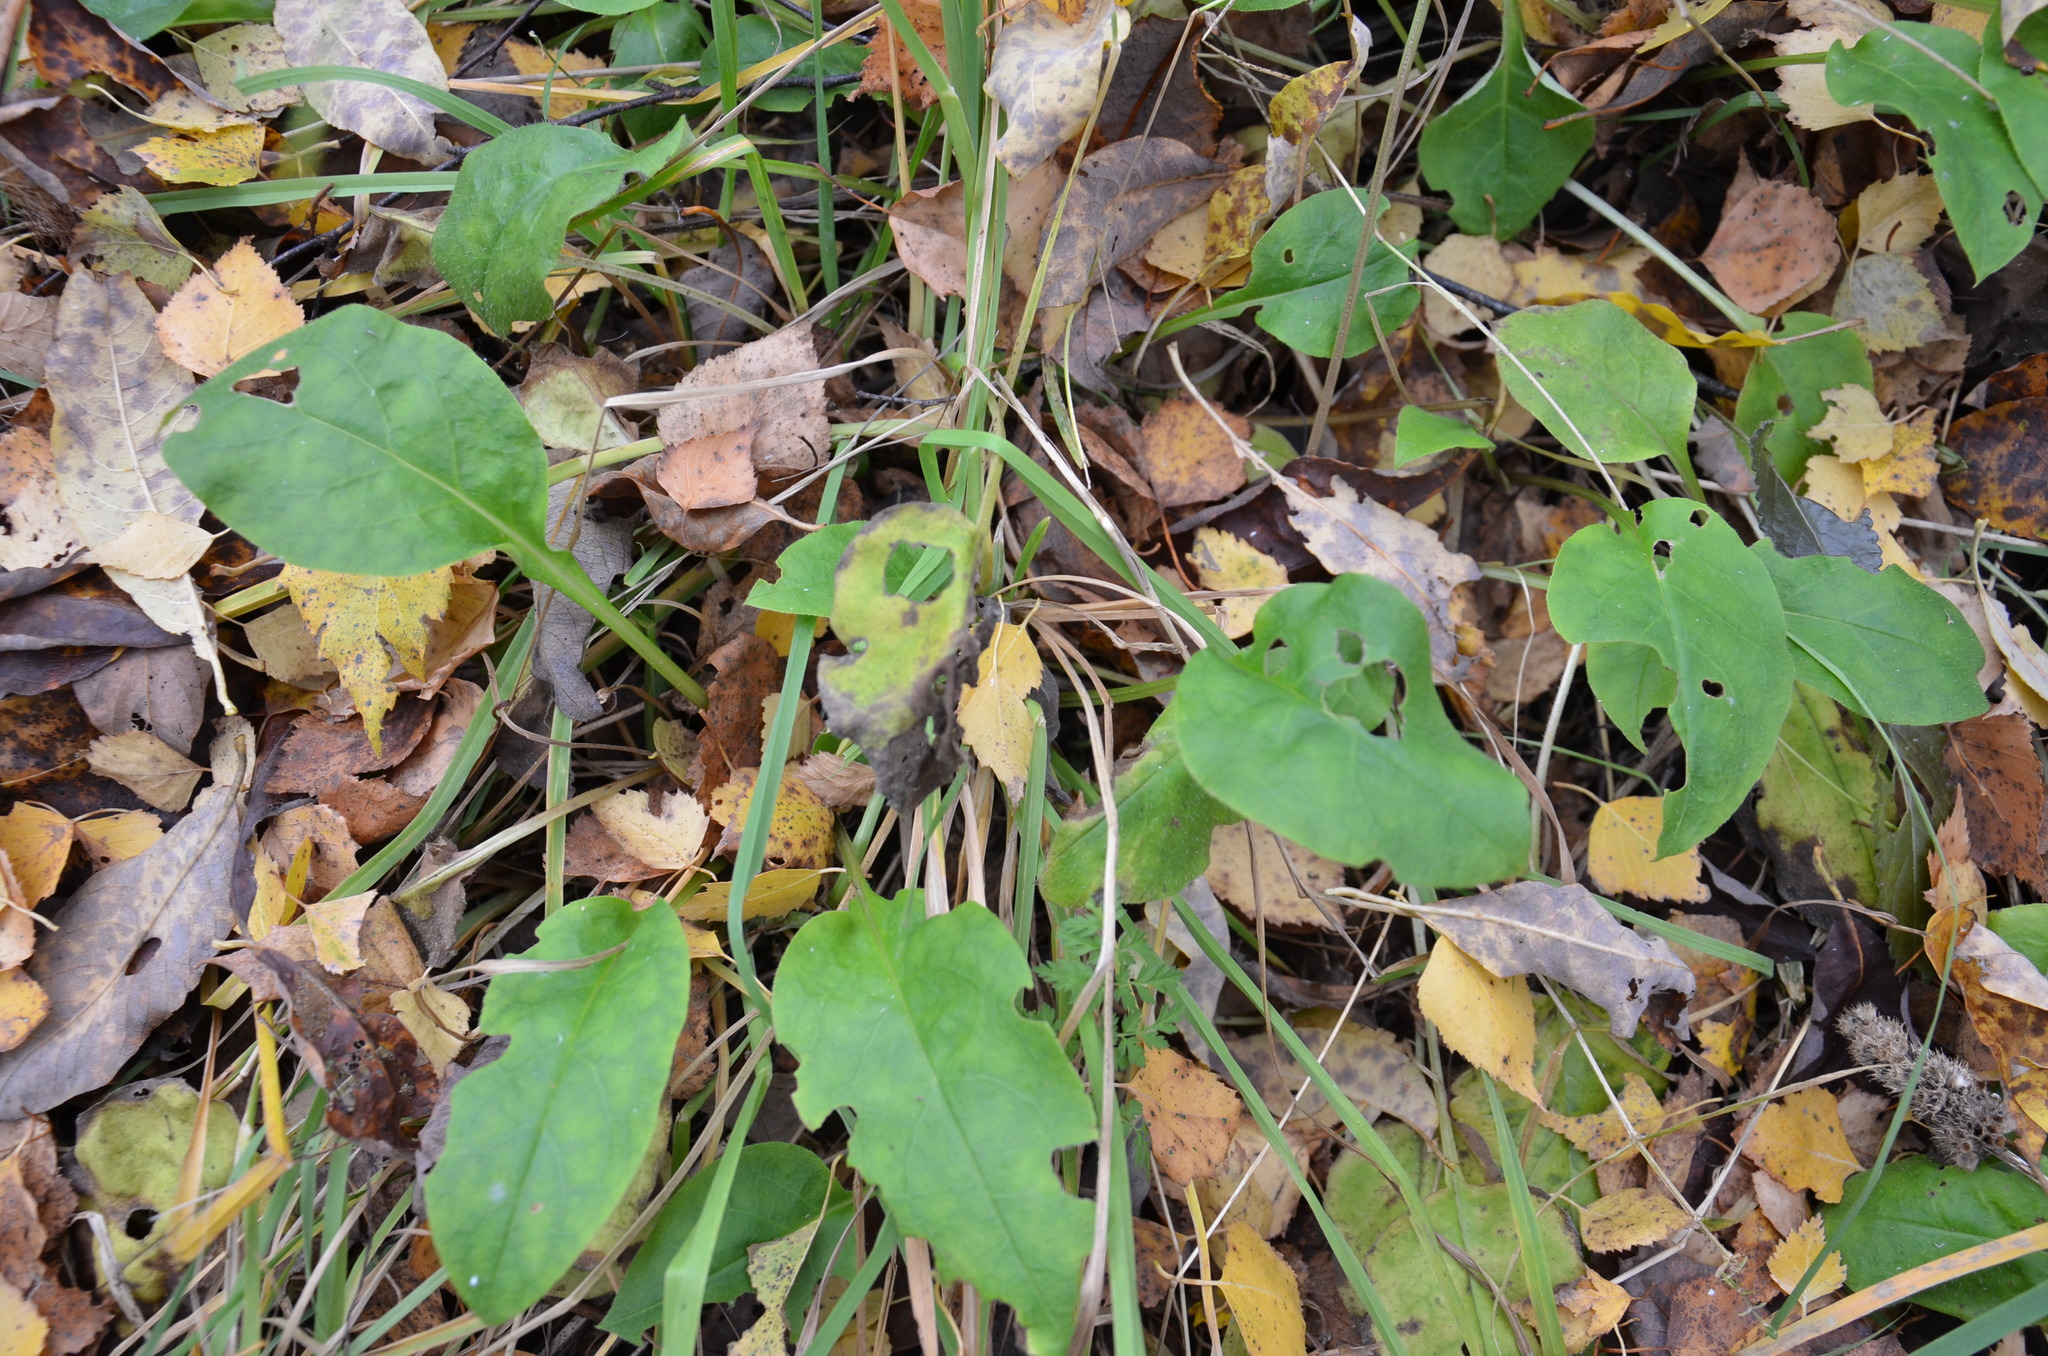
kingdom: Plantae
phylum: Tracheophyta
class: Magnoliopsida
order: Boraginales
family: Boraginaceae
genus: Pulmonaria
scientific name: Pulmonaria obscura
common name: Suffolk lungwort
